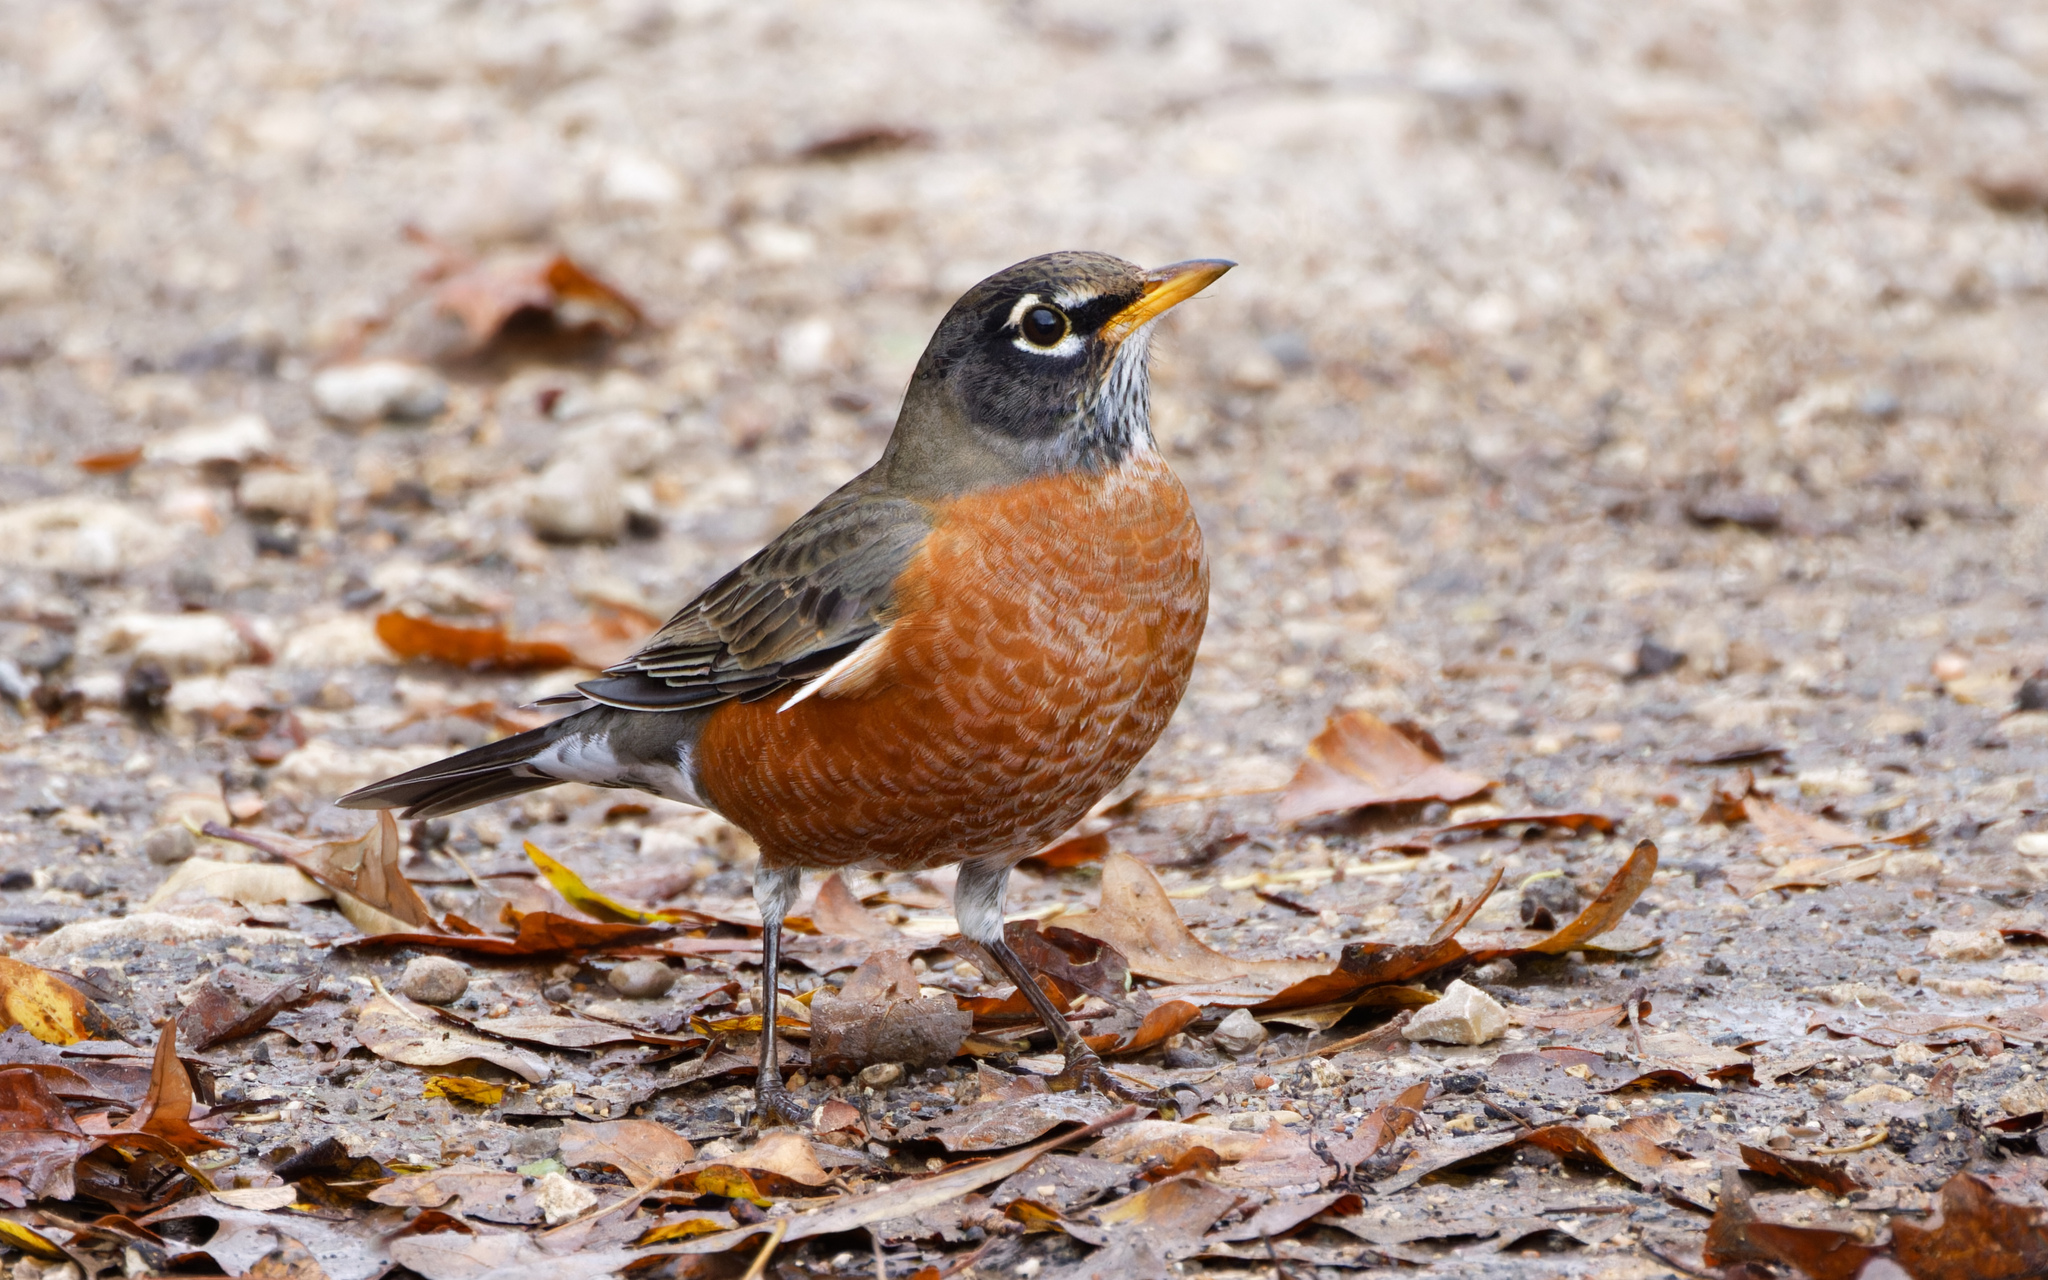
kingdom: Animalia
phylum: Chordata
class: Aves
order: Passeriformes
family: Turdidae
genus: Turdus
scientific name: Turdus migratorius
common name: American robin
